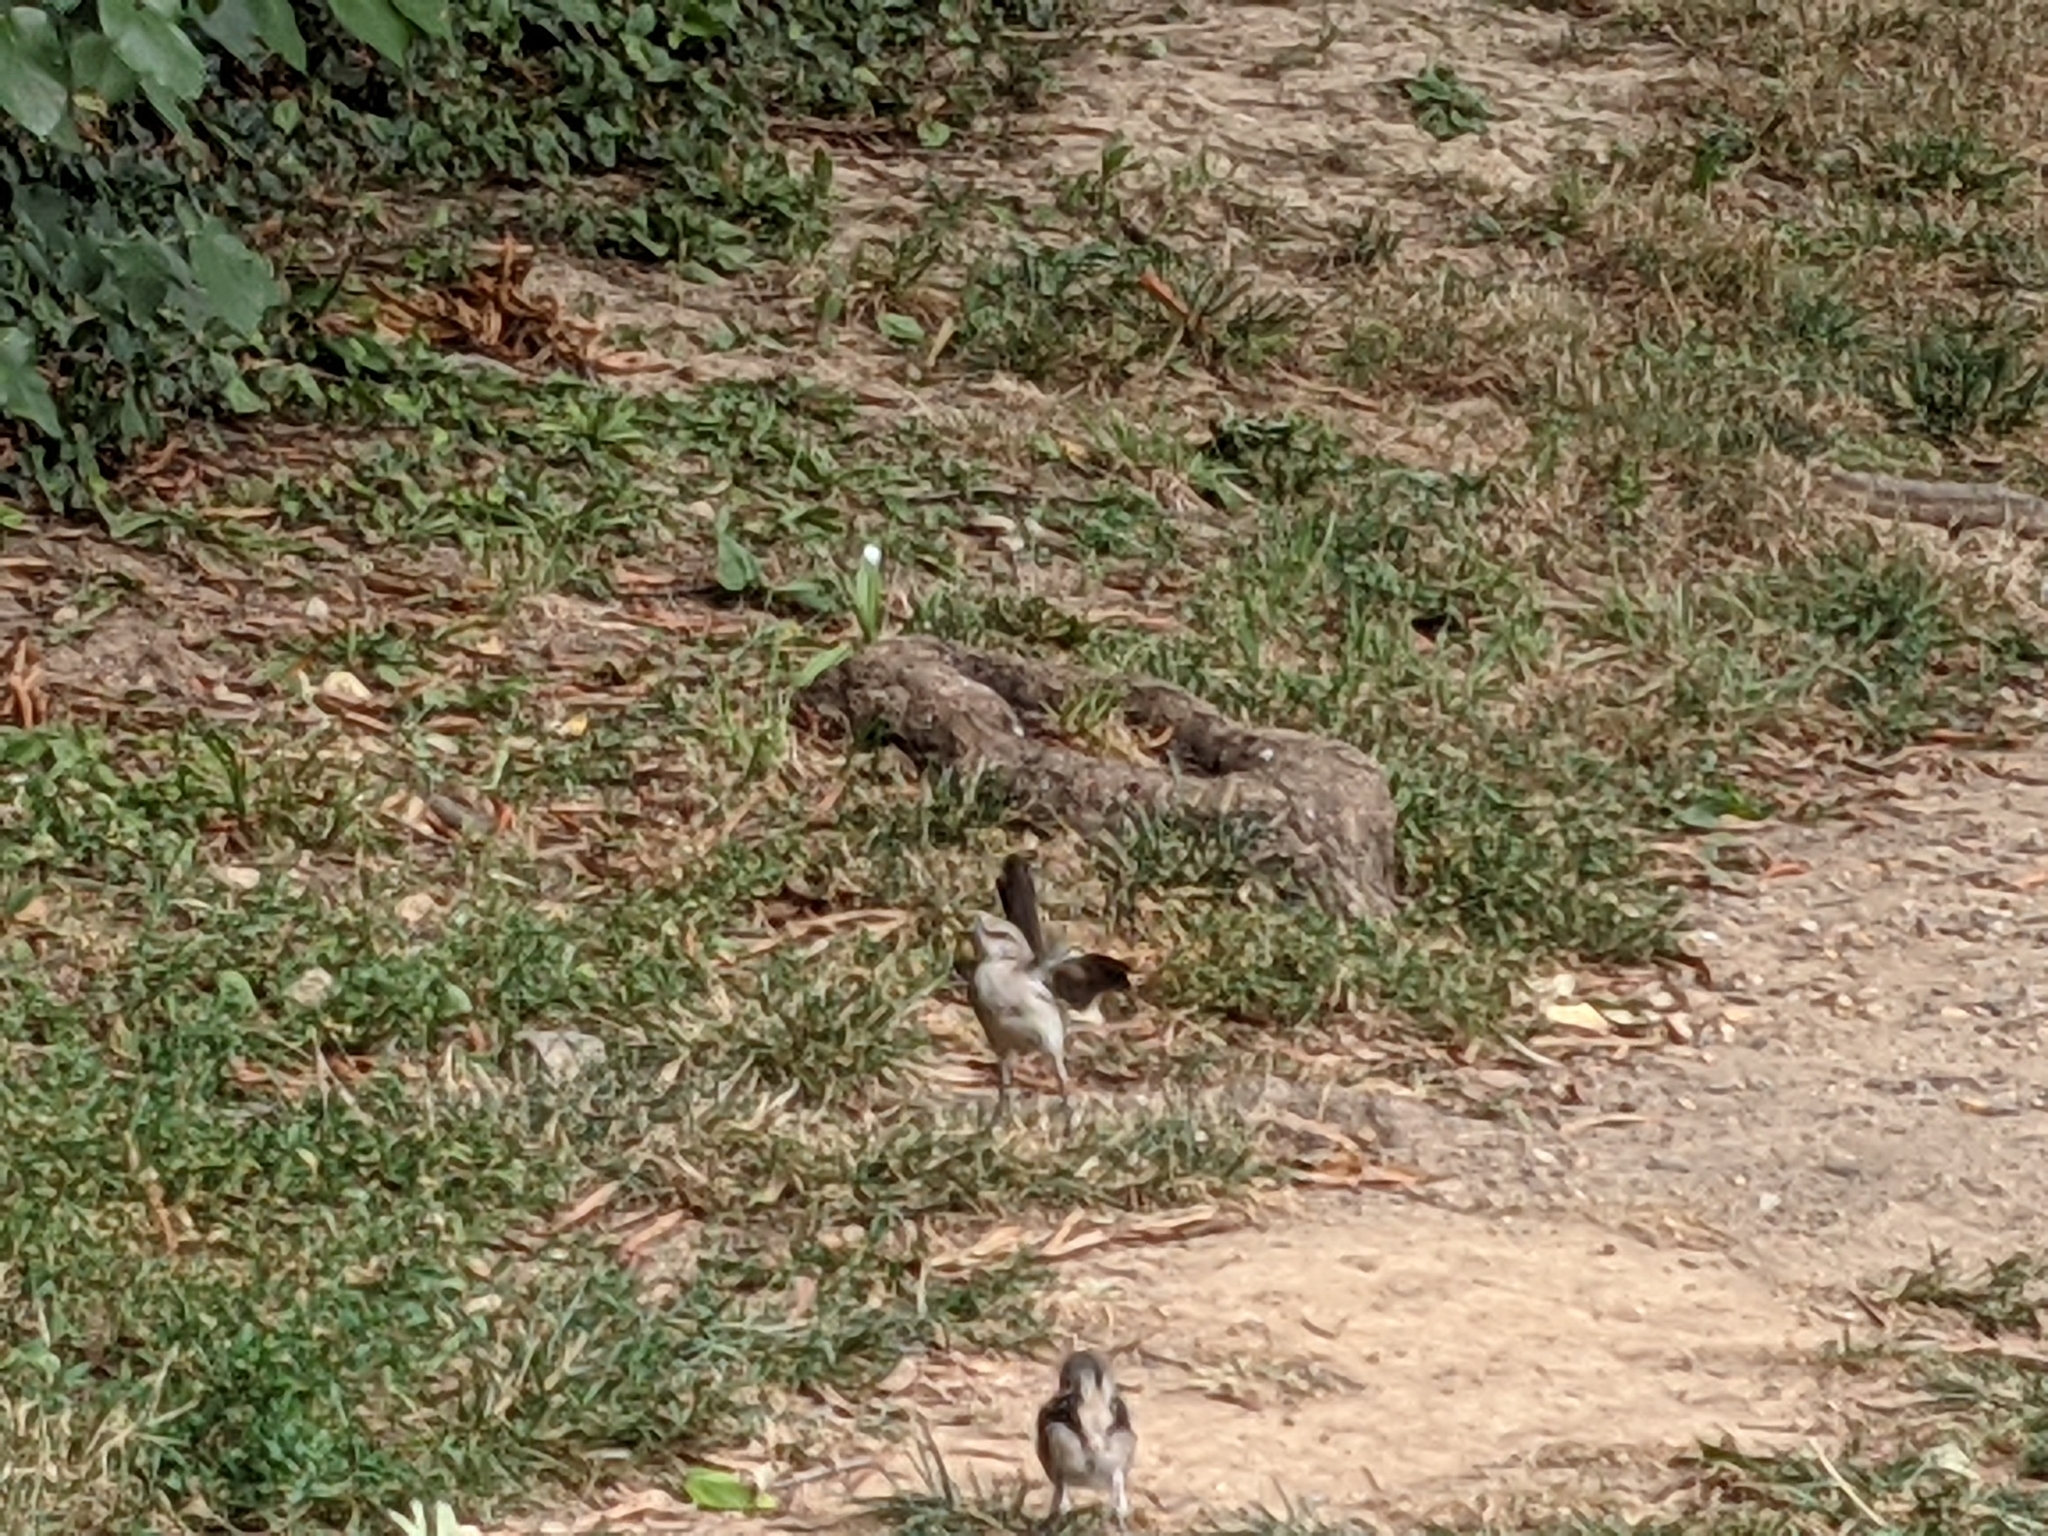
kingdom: Animalia
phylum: Chordata
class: Aves
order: Passeriformes
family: Mimidae
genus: Mimus
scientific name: Mimus polyglottos
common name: Northern mockingbird
